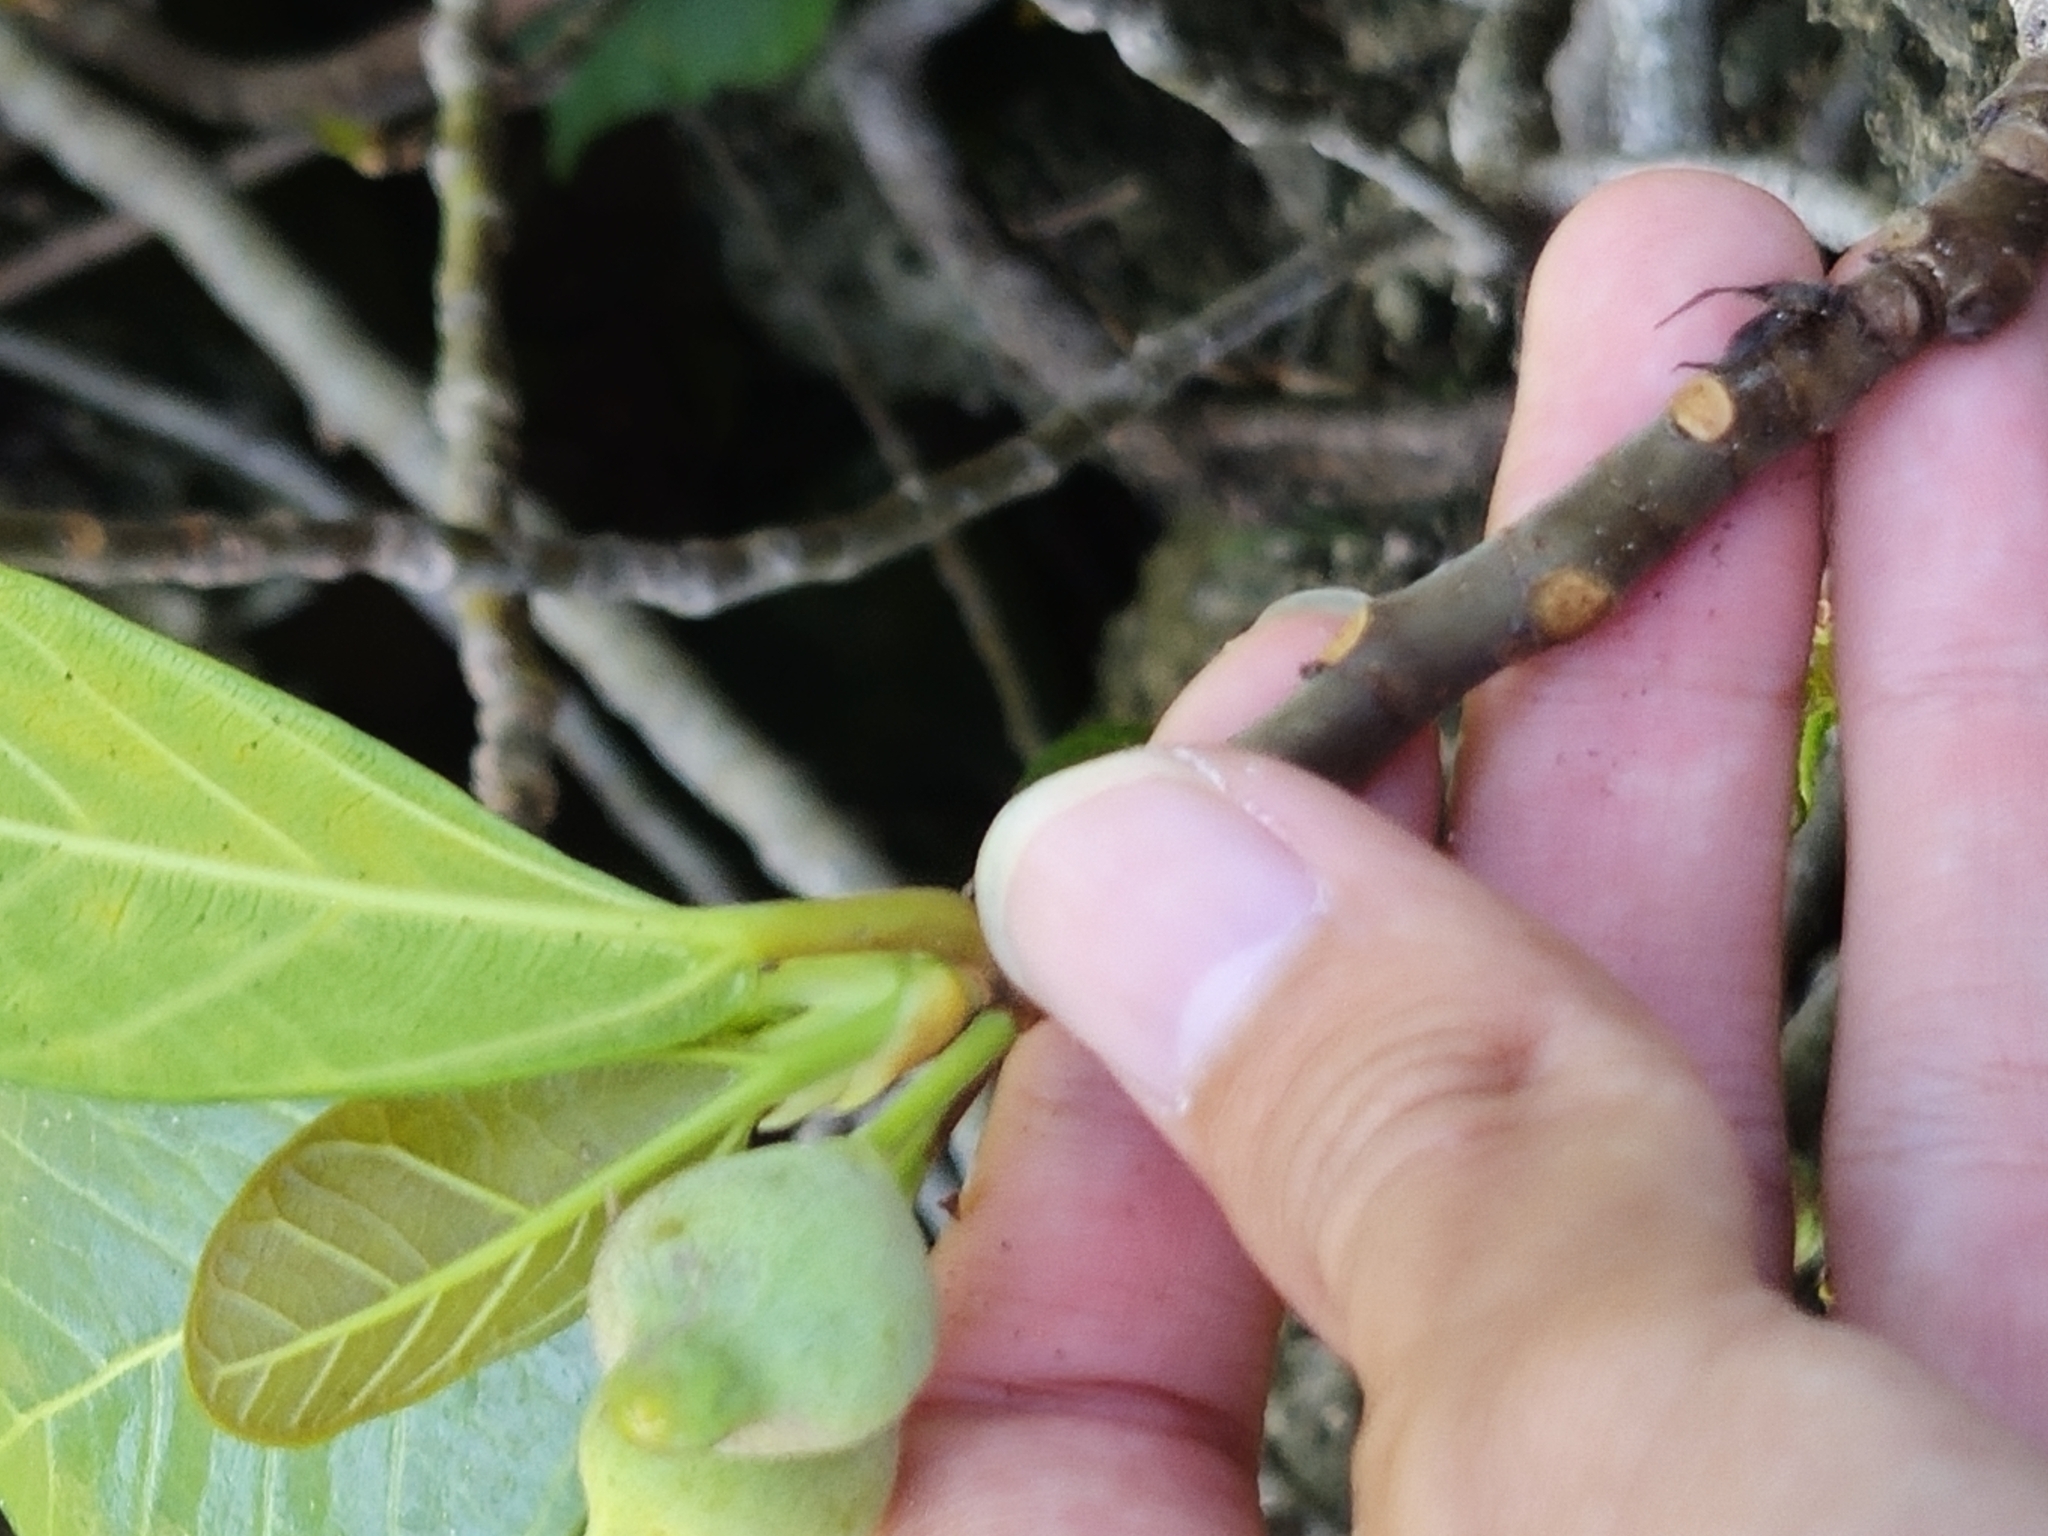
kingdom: Plantae
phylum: Tracheophyta
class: Magnoliopsida
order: Rosales
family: Moraceae
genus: Ficus
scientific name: Ficus pedunculosa
